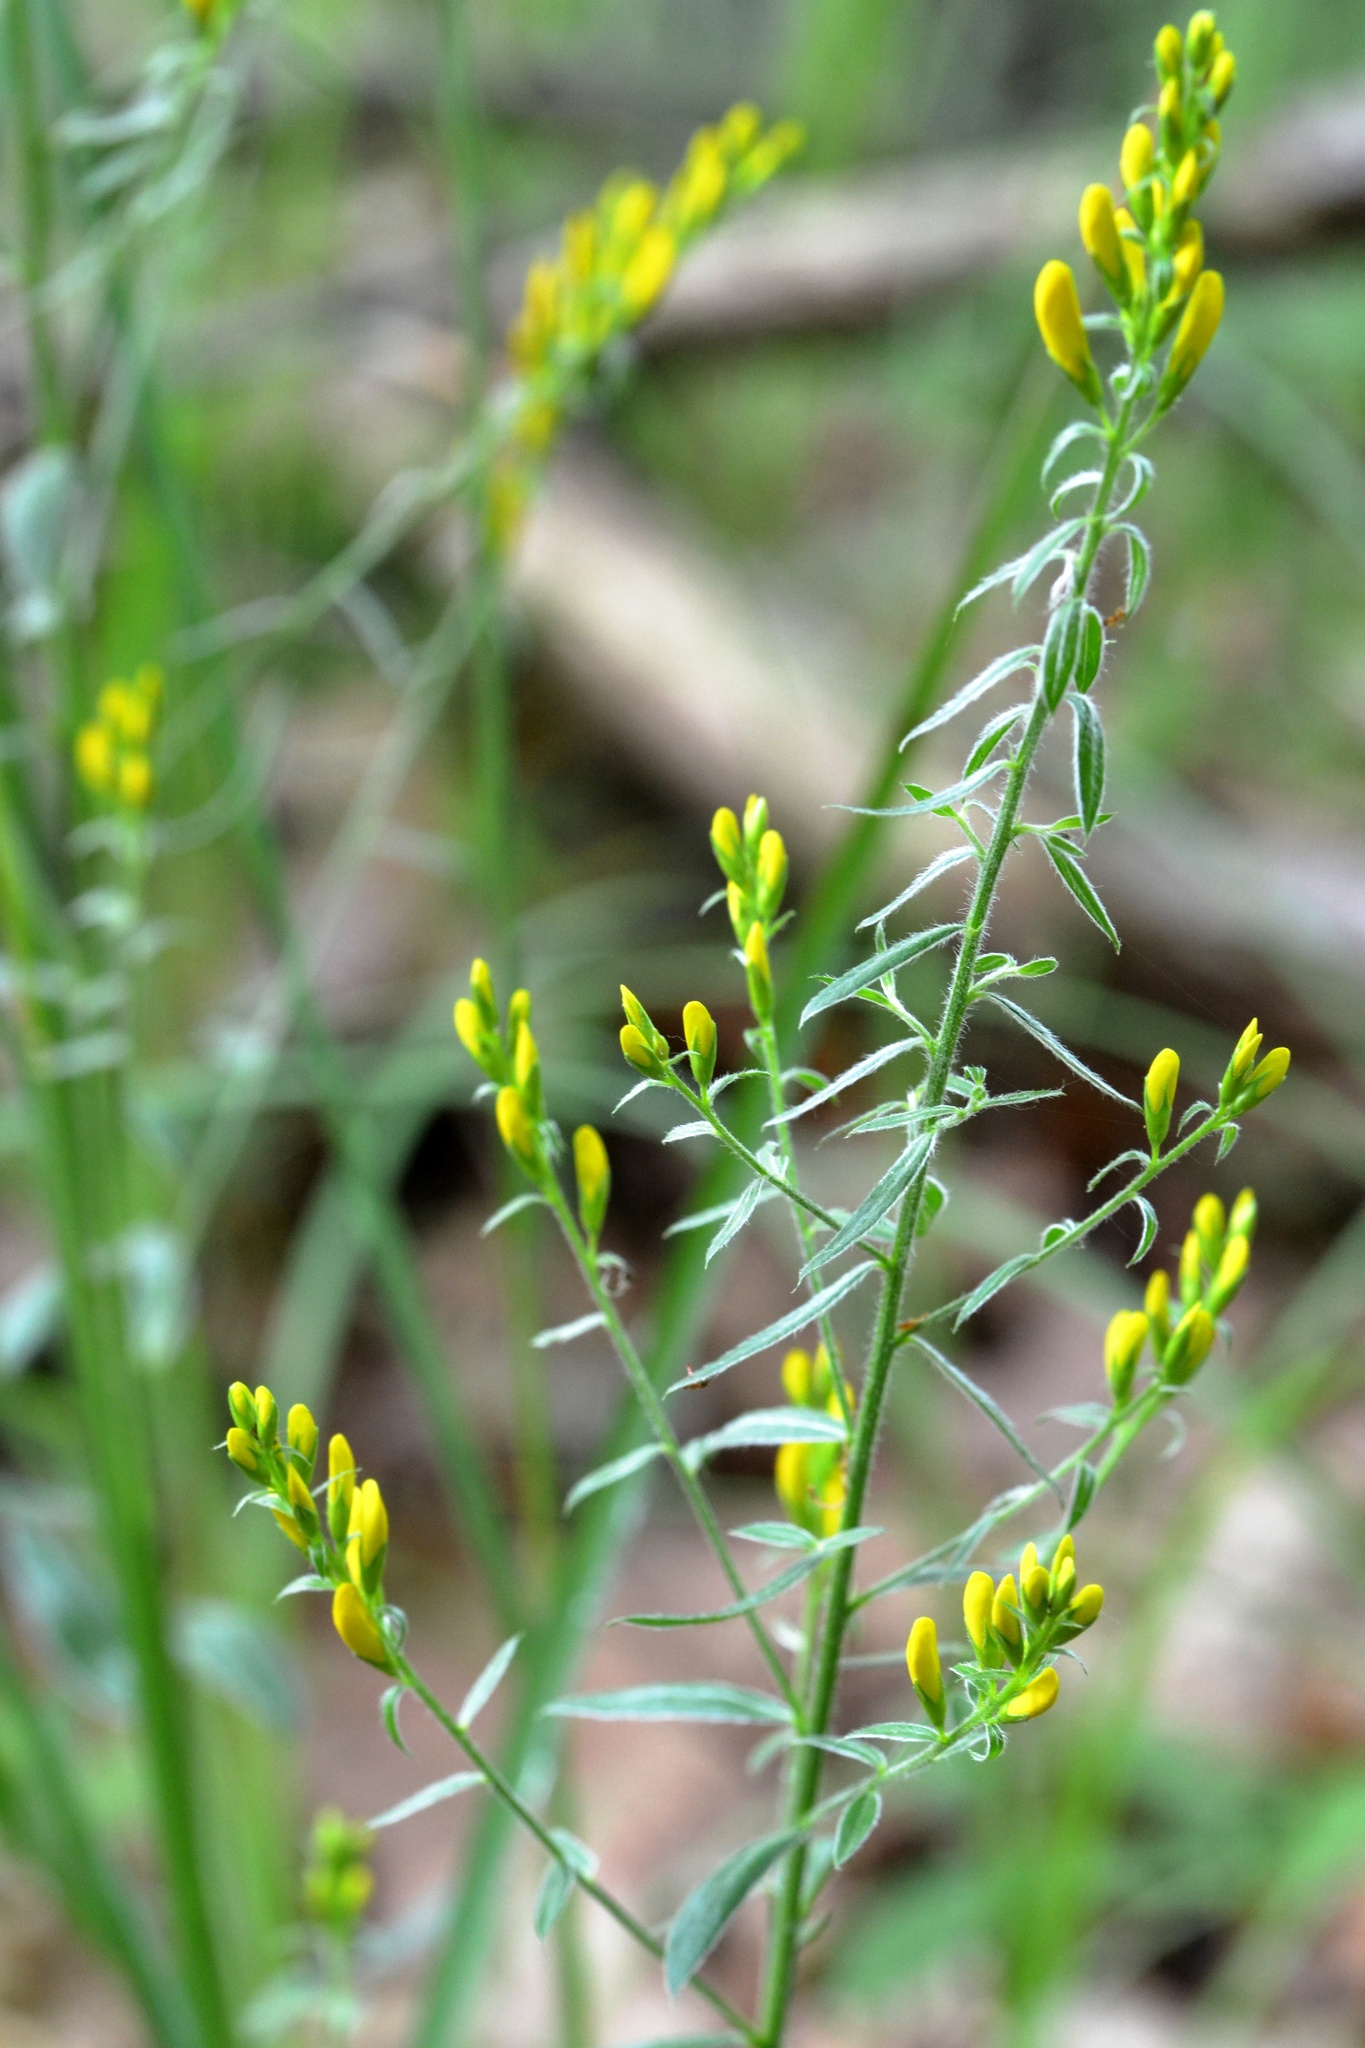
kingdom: Plantae
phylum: Tracheophyta
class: Magnoliopsida
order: Fabales
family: Fabaceae
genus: Genista
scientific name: Genista tinctoria
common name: Dyer's greenweed
